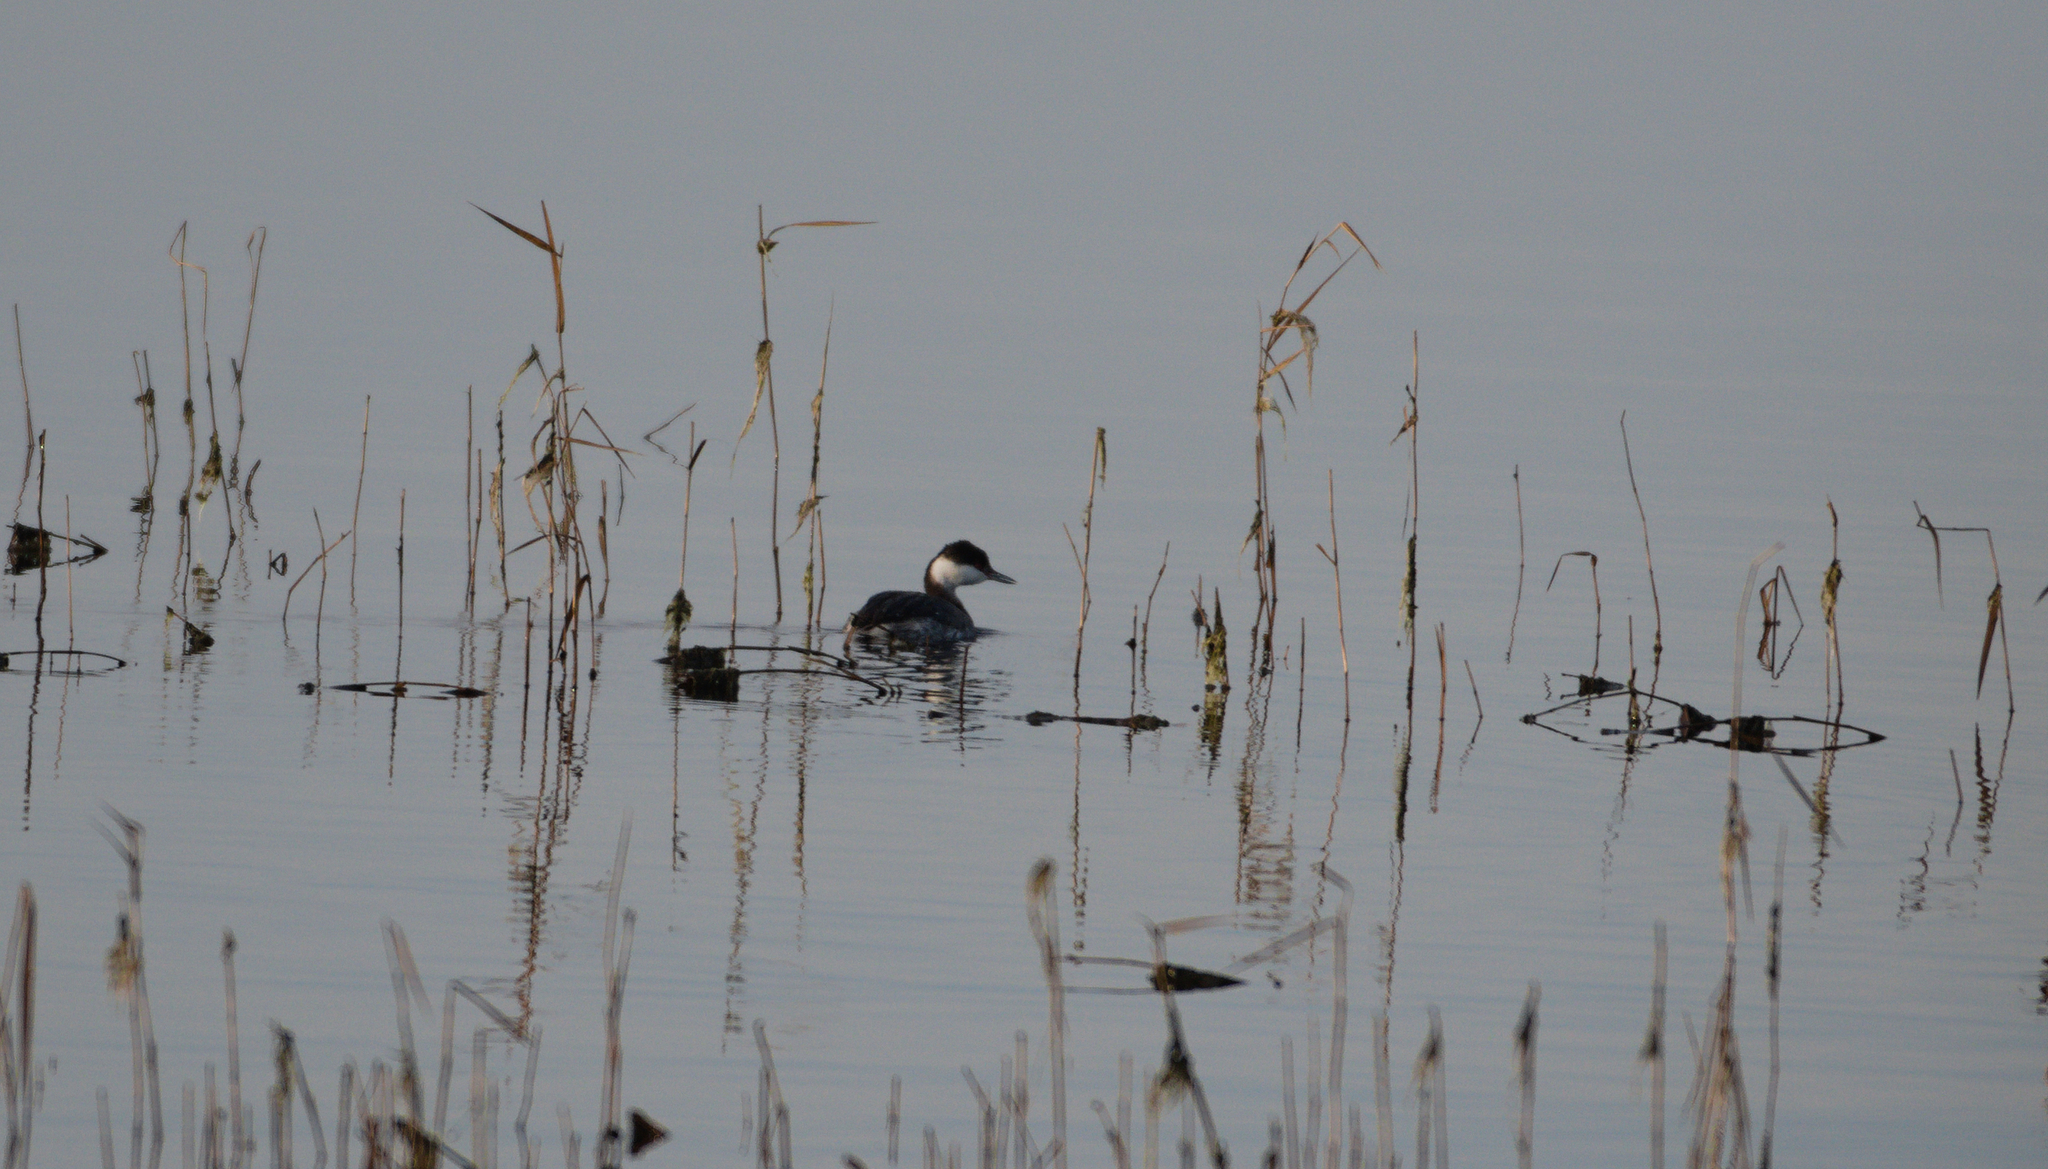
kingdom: Animalia
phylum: Chordata
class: Aves
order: Podicipediformes
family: Podicipedidae
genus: Podiceps
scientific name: Podiceps auritus
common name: Horned grebe
